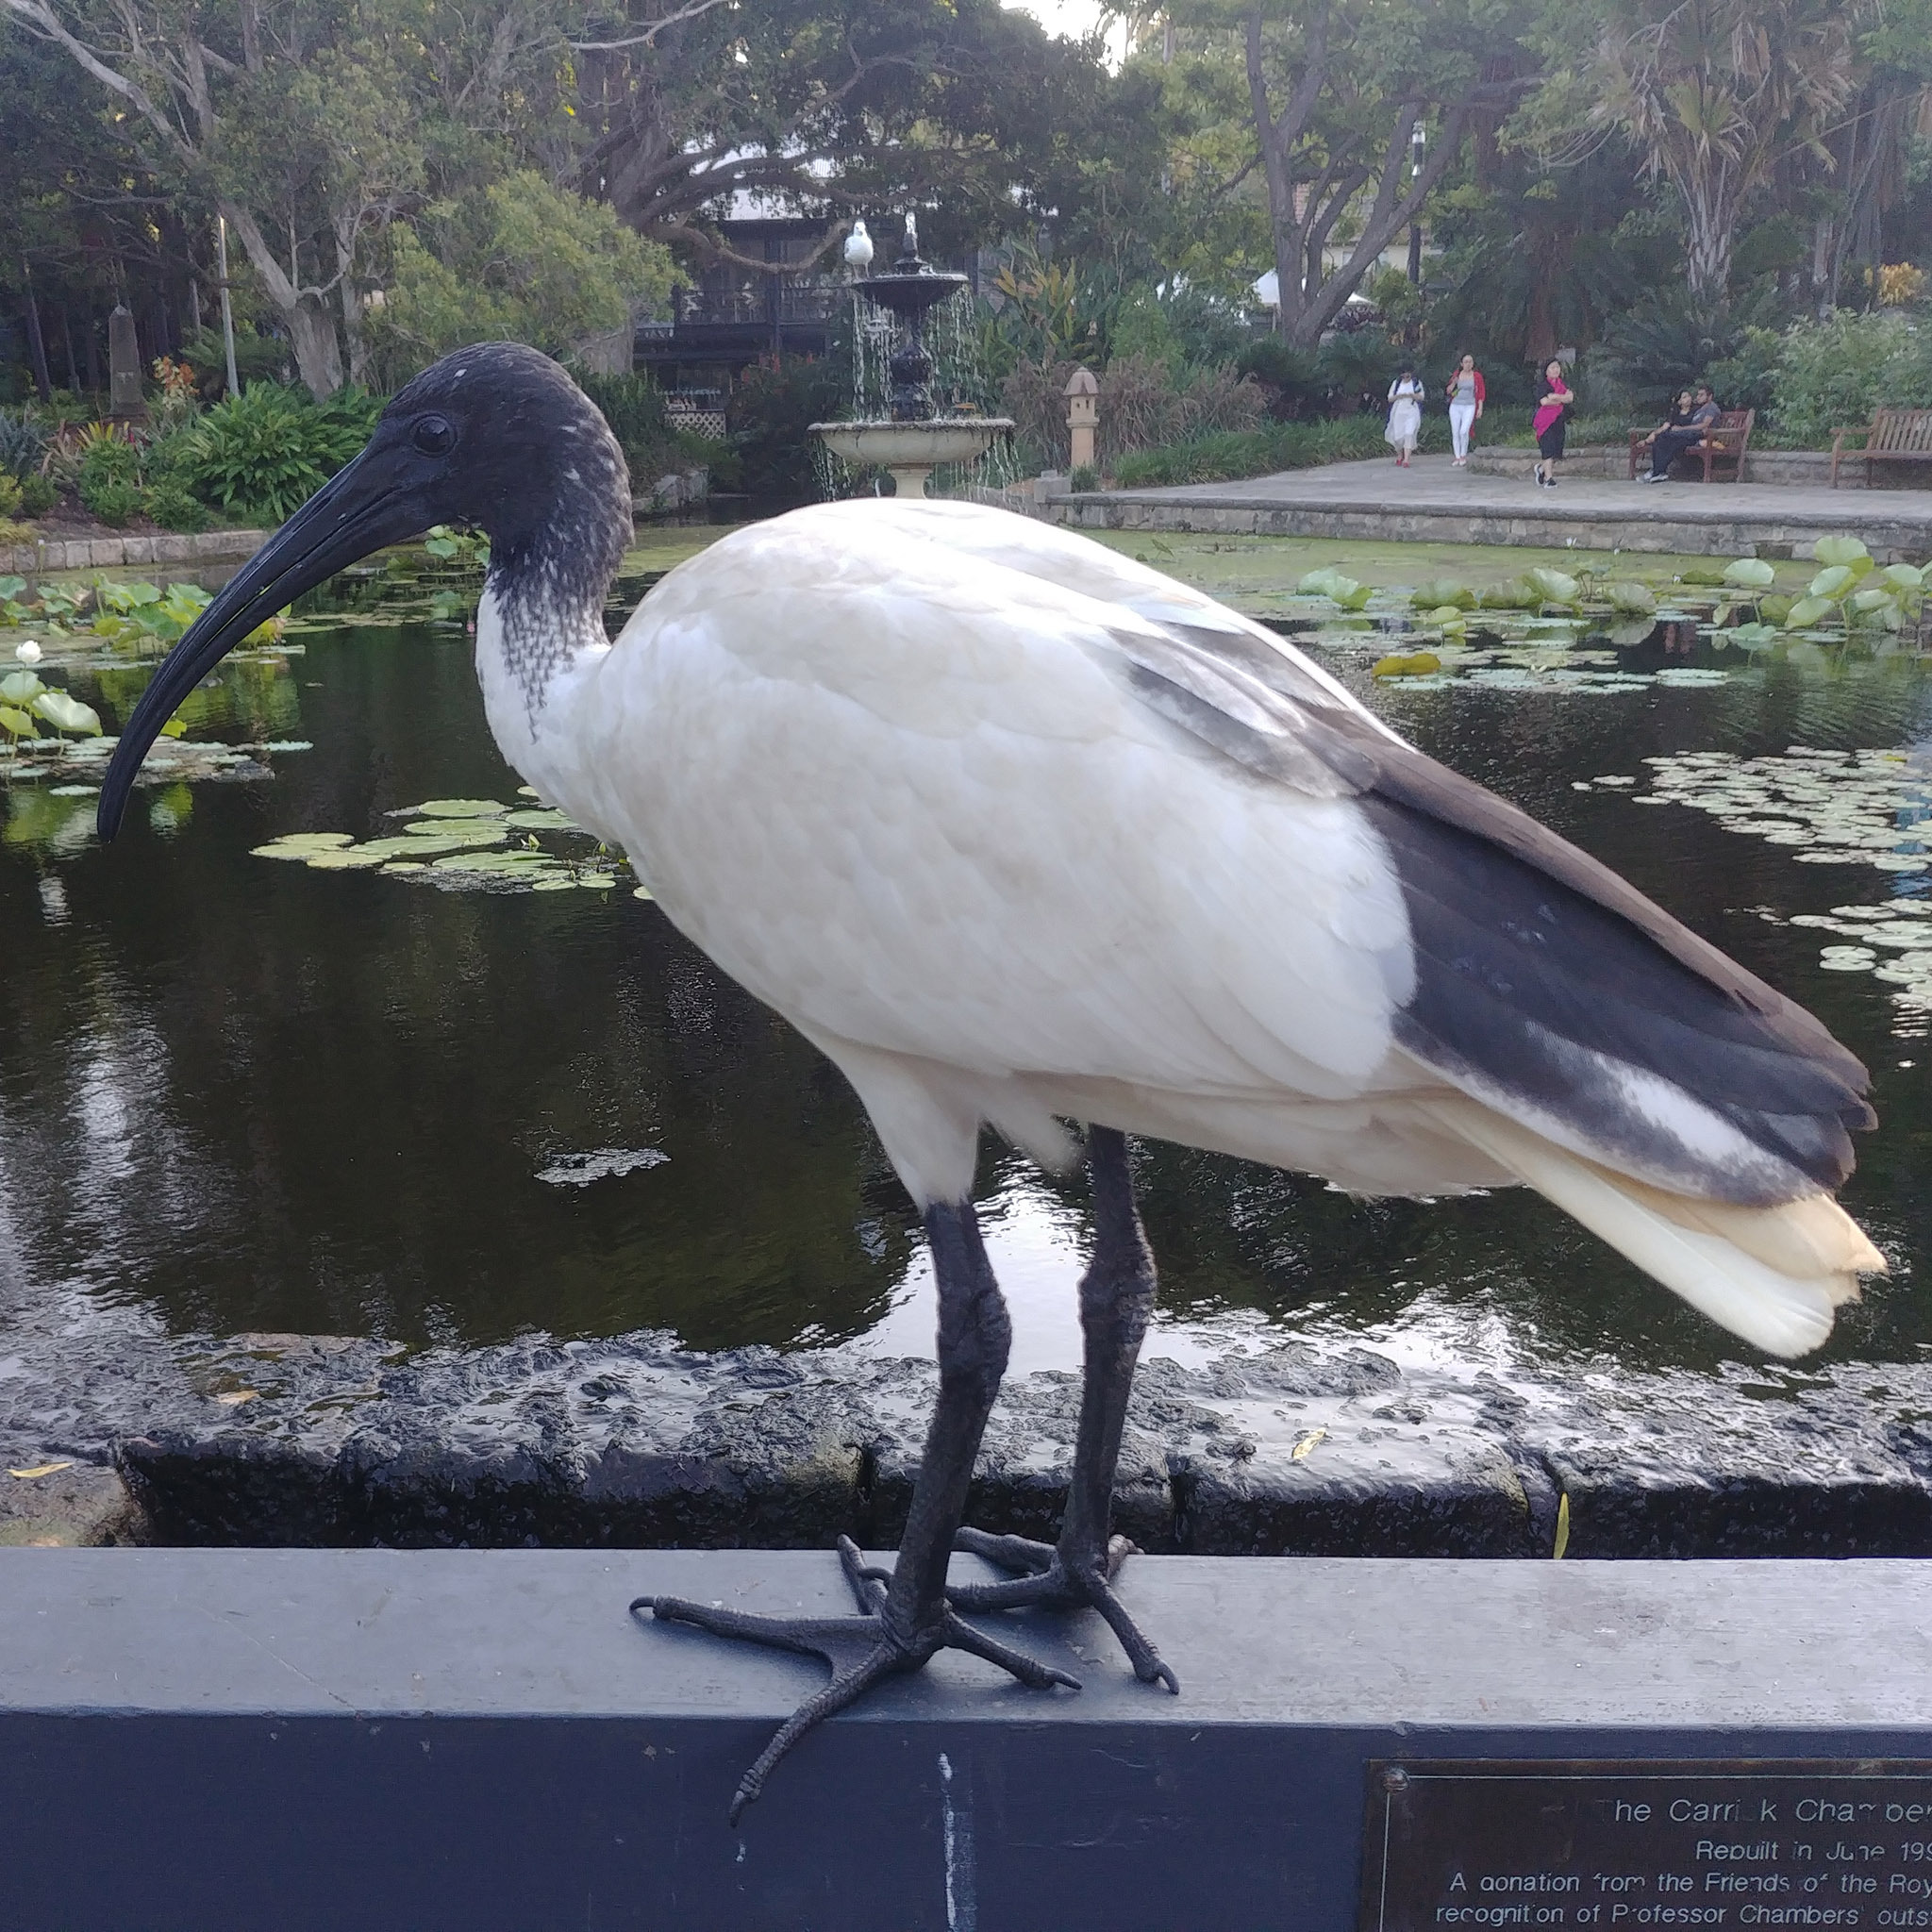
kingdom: Animalia
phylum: Chordata
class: Aves
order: Pelecaniformes
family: Threskiornithidae
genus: Threskiornis
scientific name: Threskiornis molucca
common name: Australian white ibis
